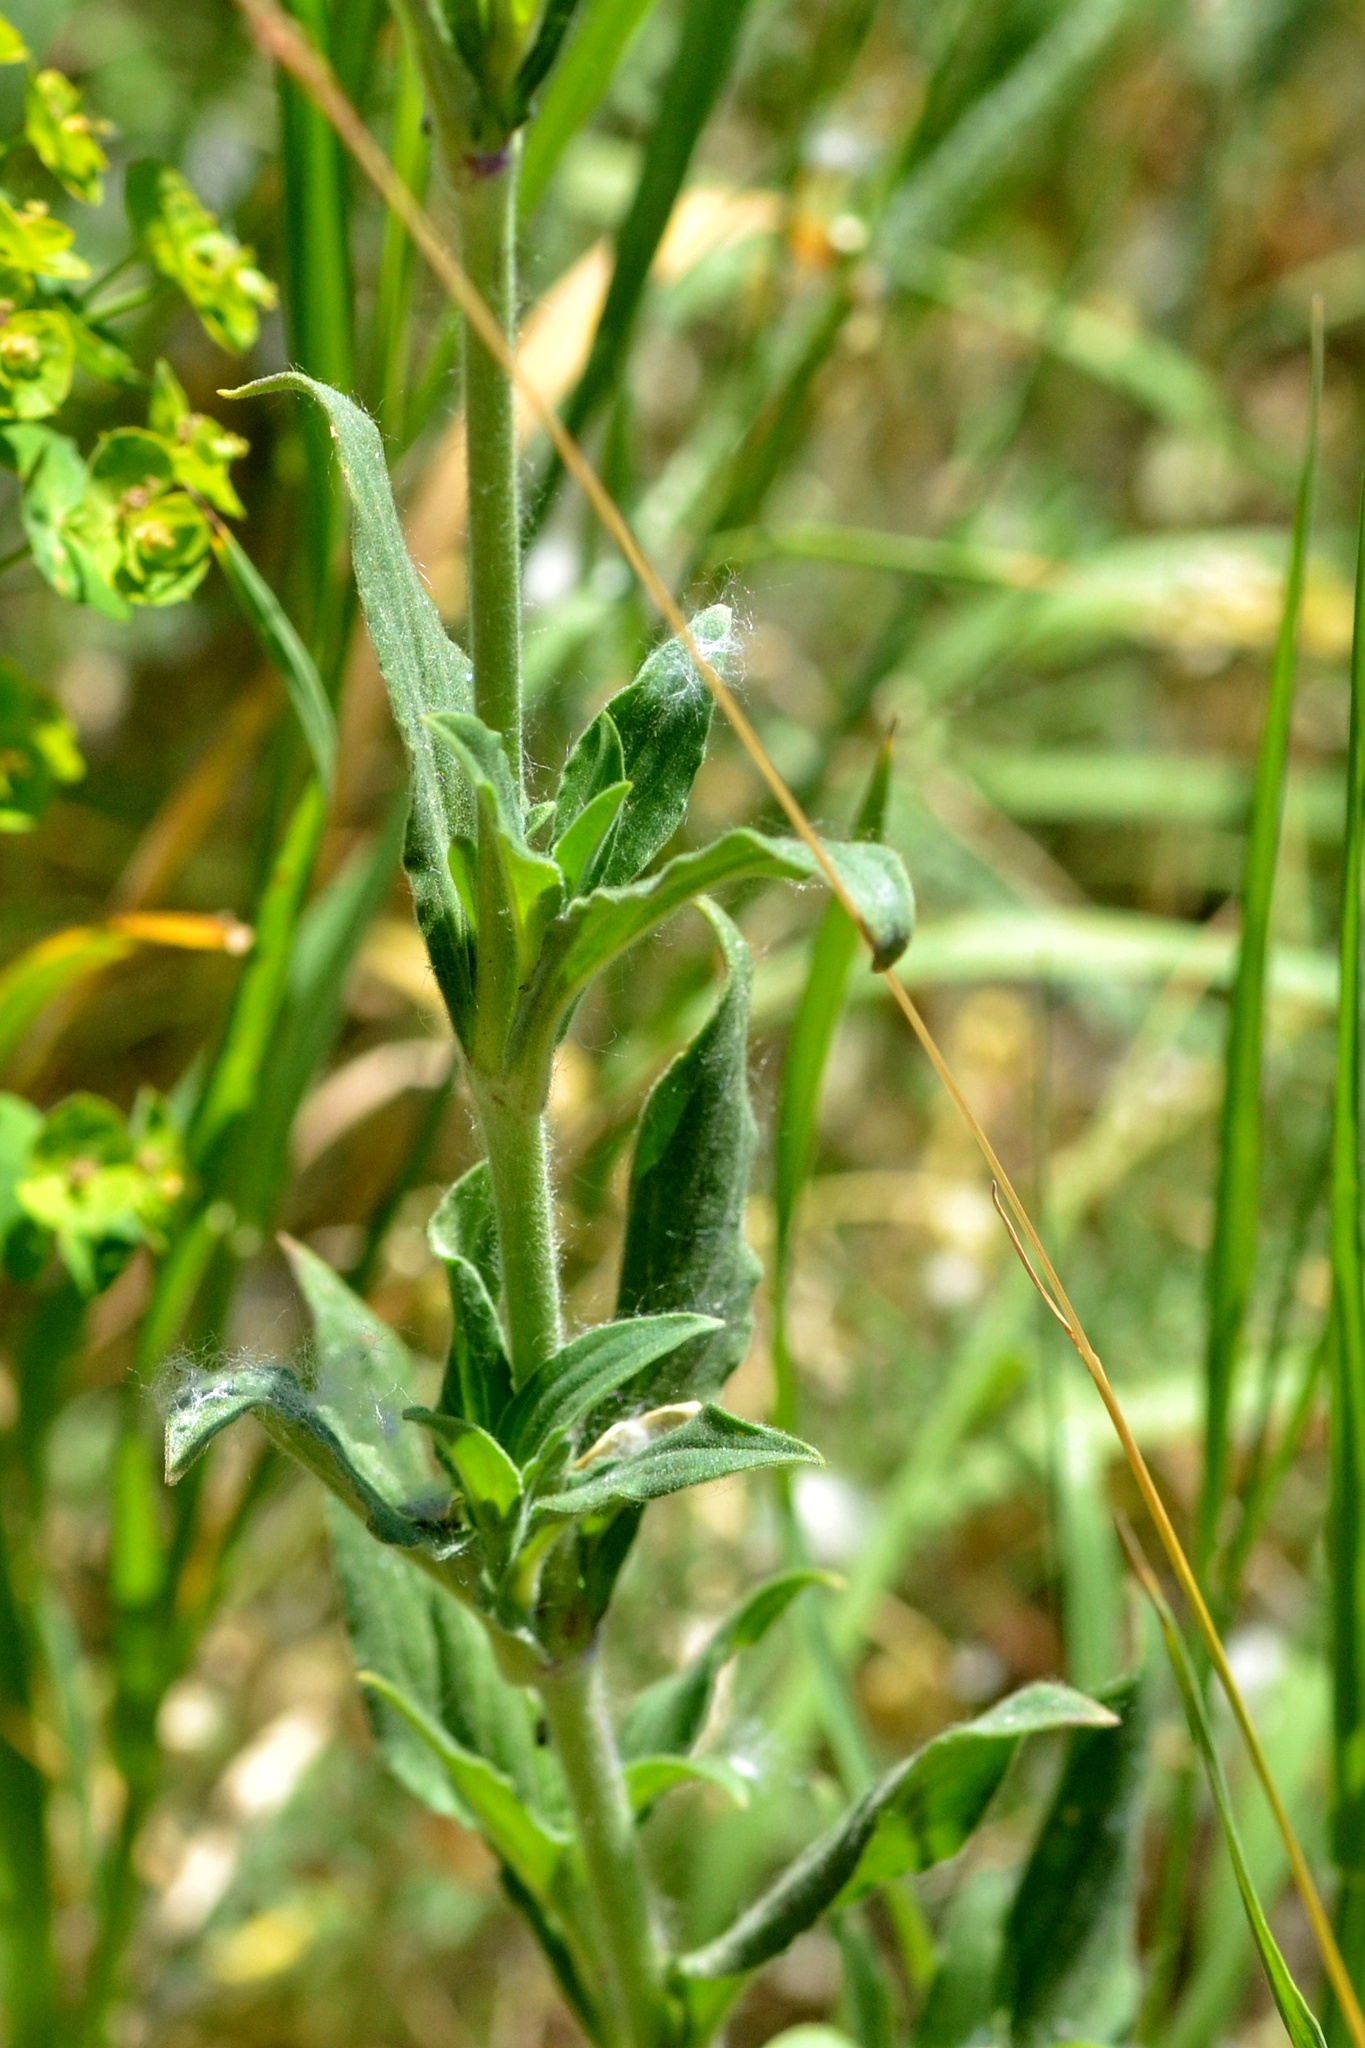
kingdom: Plantae
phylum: Tracheophyta
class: Magnoliopsida
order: Caryophyllales
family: Caryophyllaceae
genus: Silene
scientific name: Silene latifolia
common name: White campion
